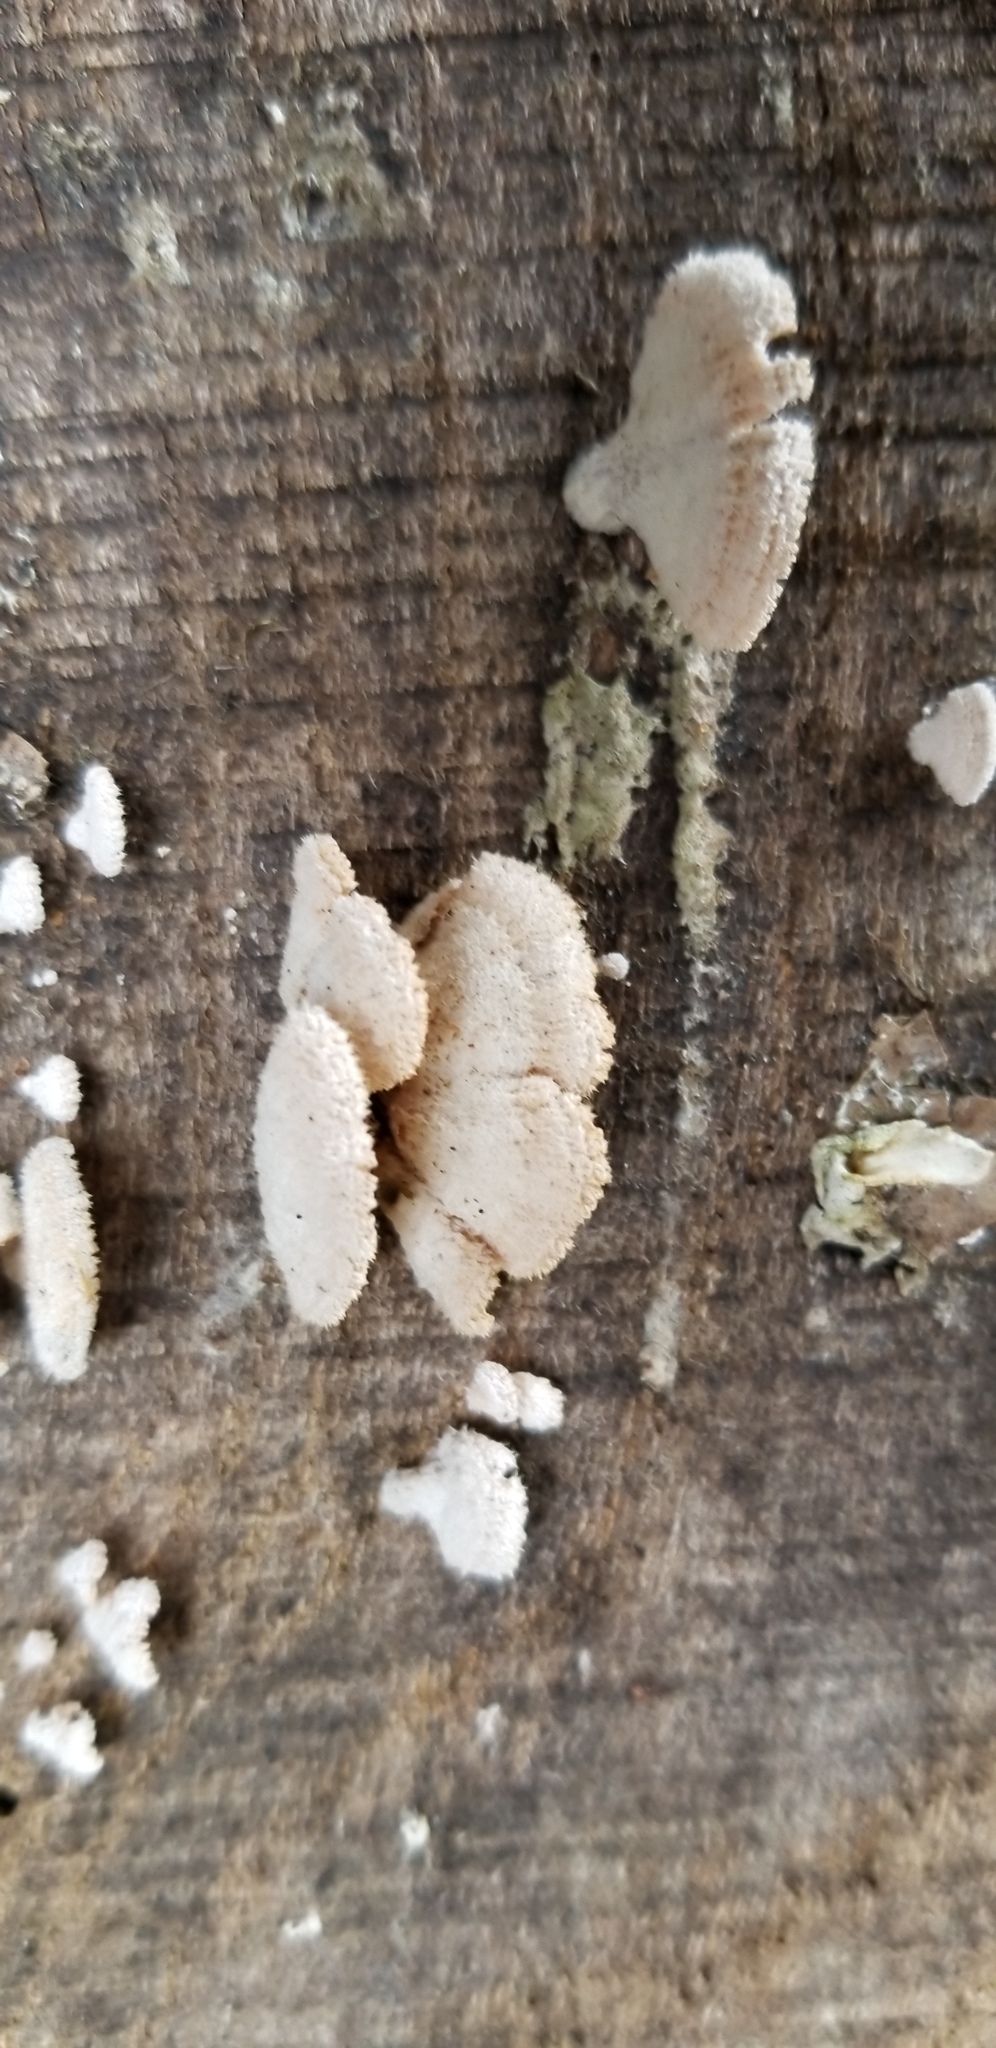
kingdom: Fungi
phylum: Basidiomycota
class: Agaricomycetes
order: Agaricales
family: Schizophyllaceae
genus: Schizophyllum
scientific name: Schizophyllum commune
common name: Common porecrust
